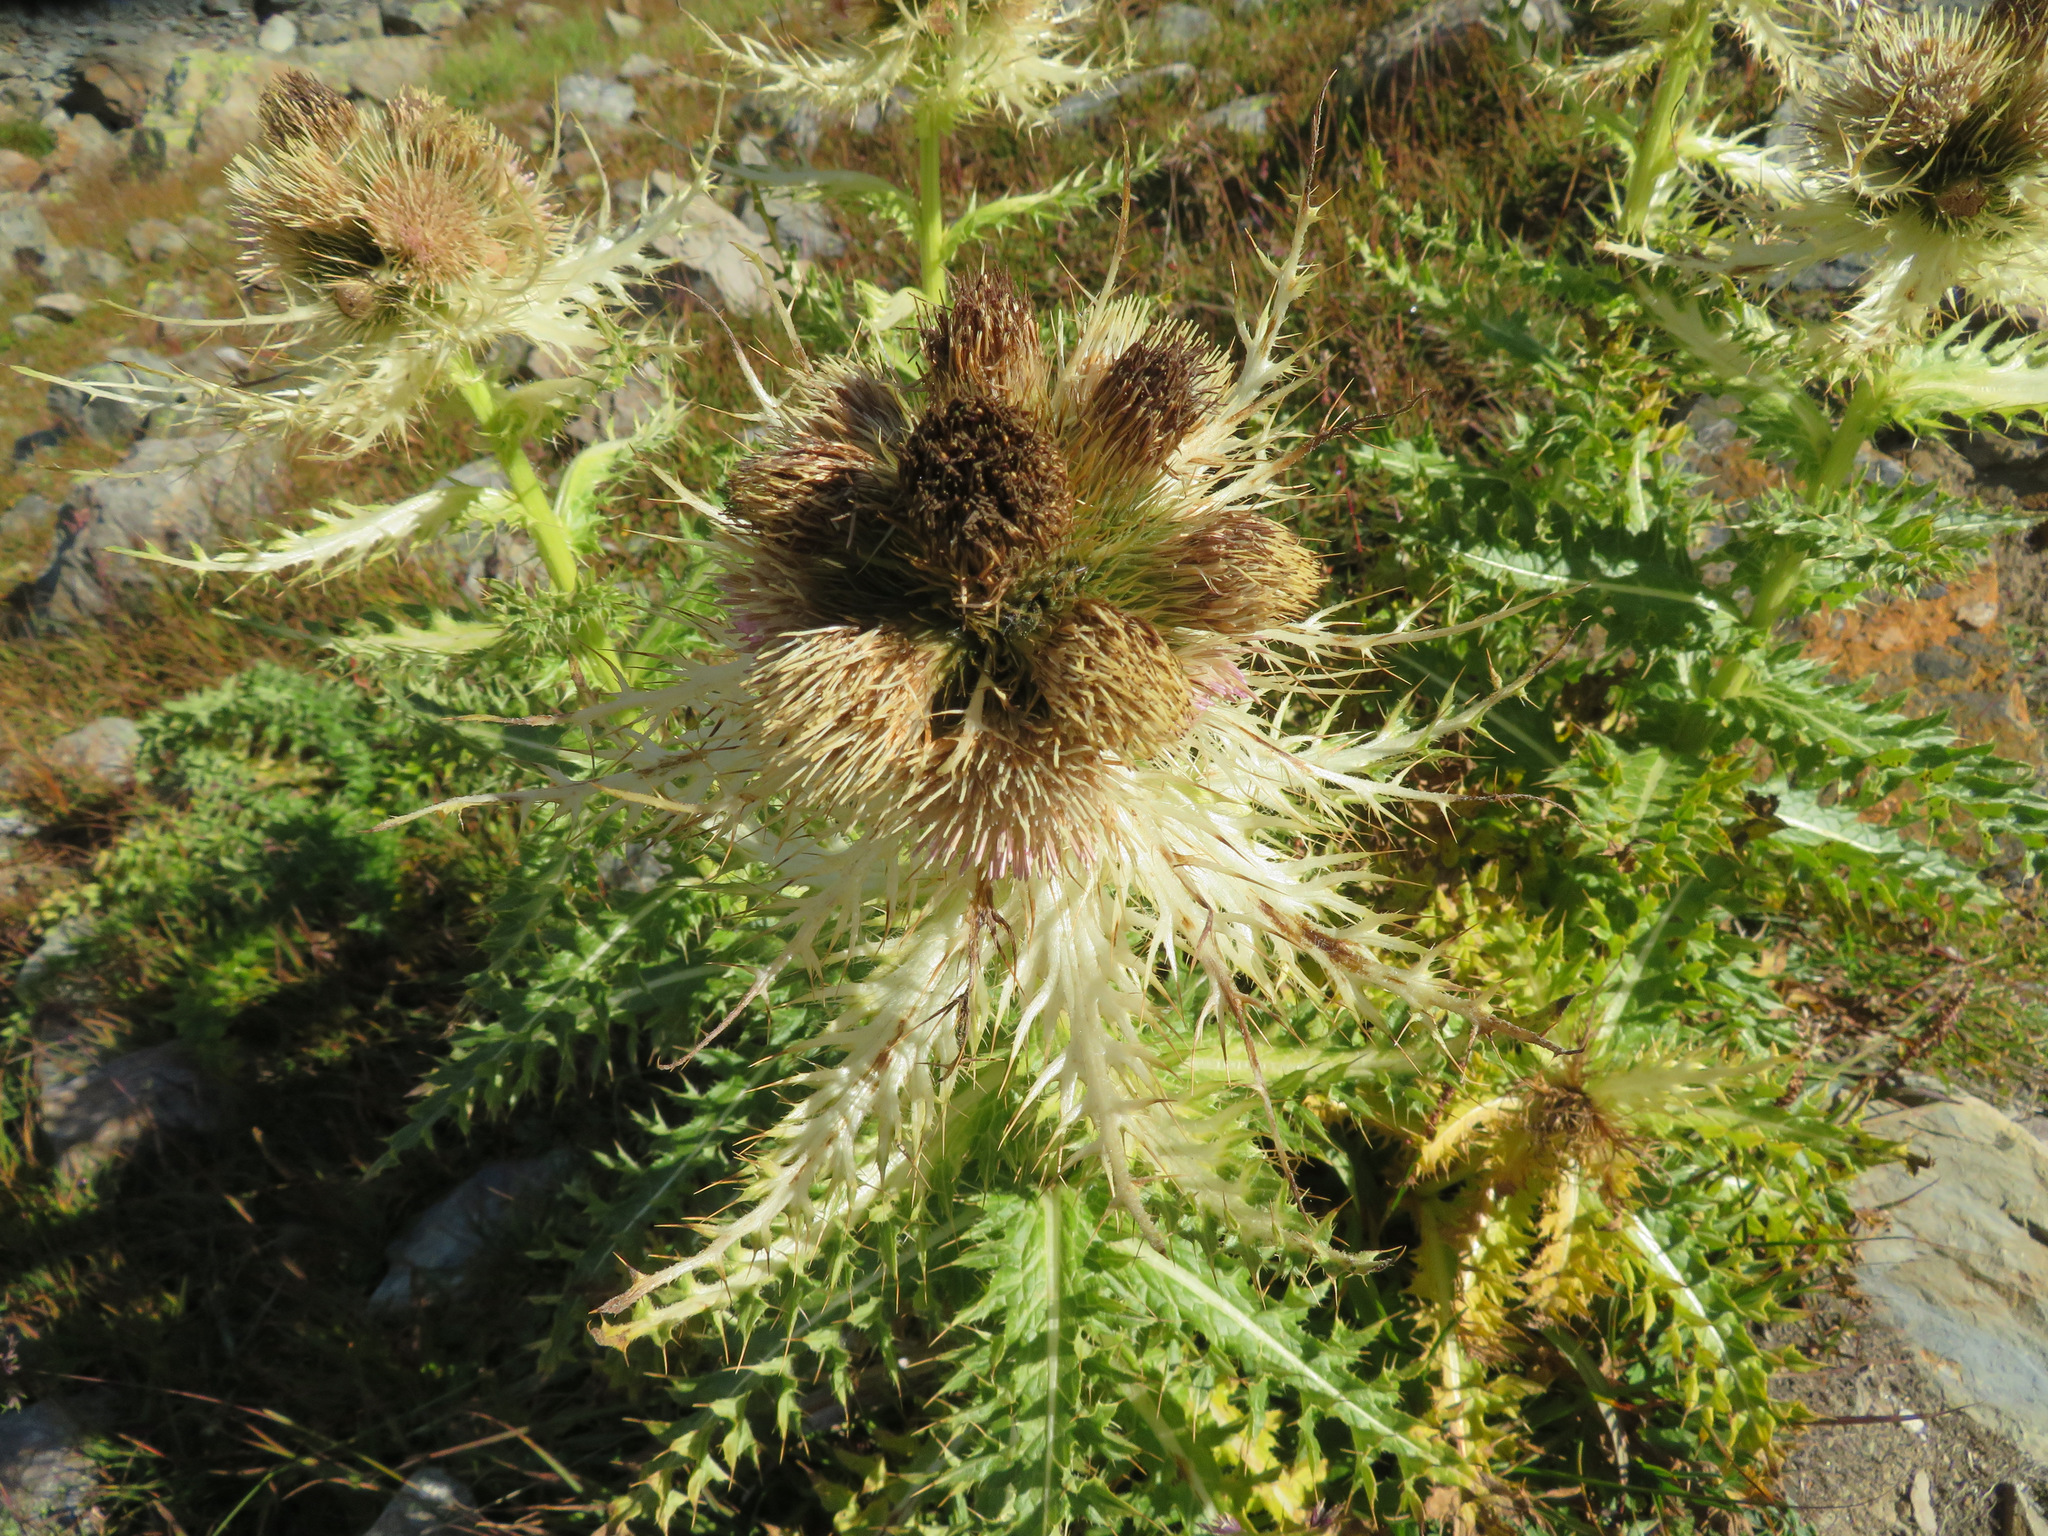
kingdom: Plantae
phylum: Tracheophyta
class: Magnoliopsida
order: Asterales
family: Asteraceae
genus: Cirsium
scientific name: Cirsium spinosissimum
